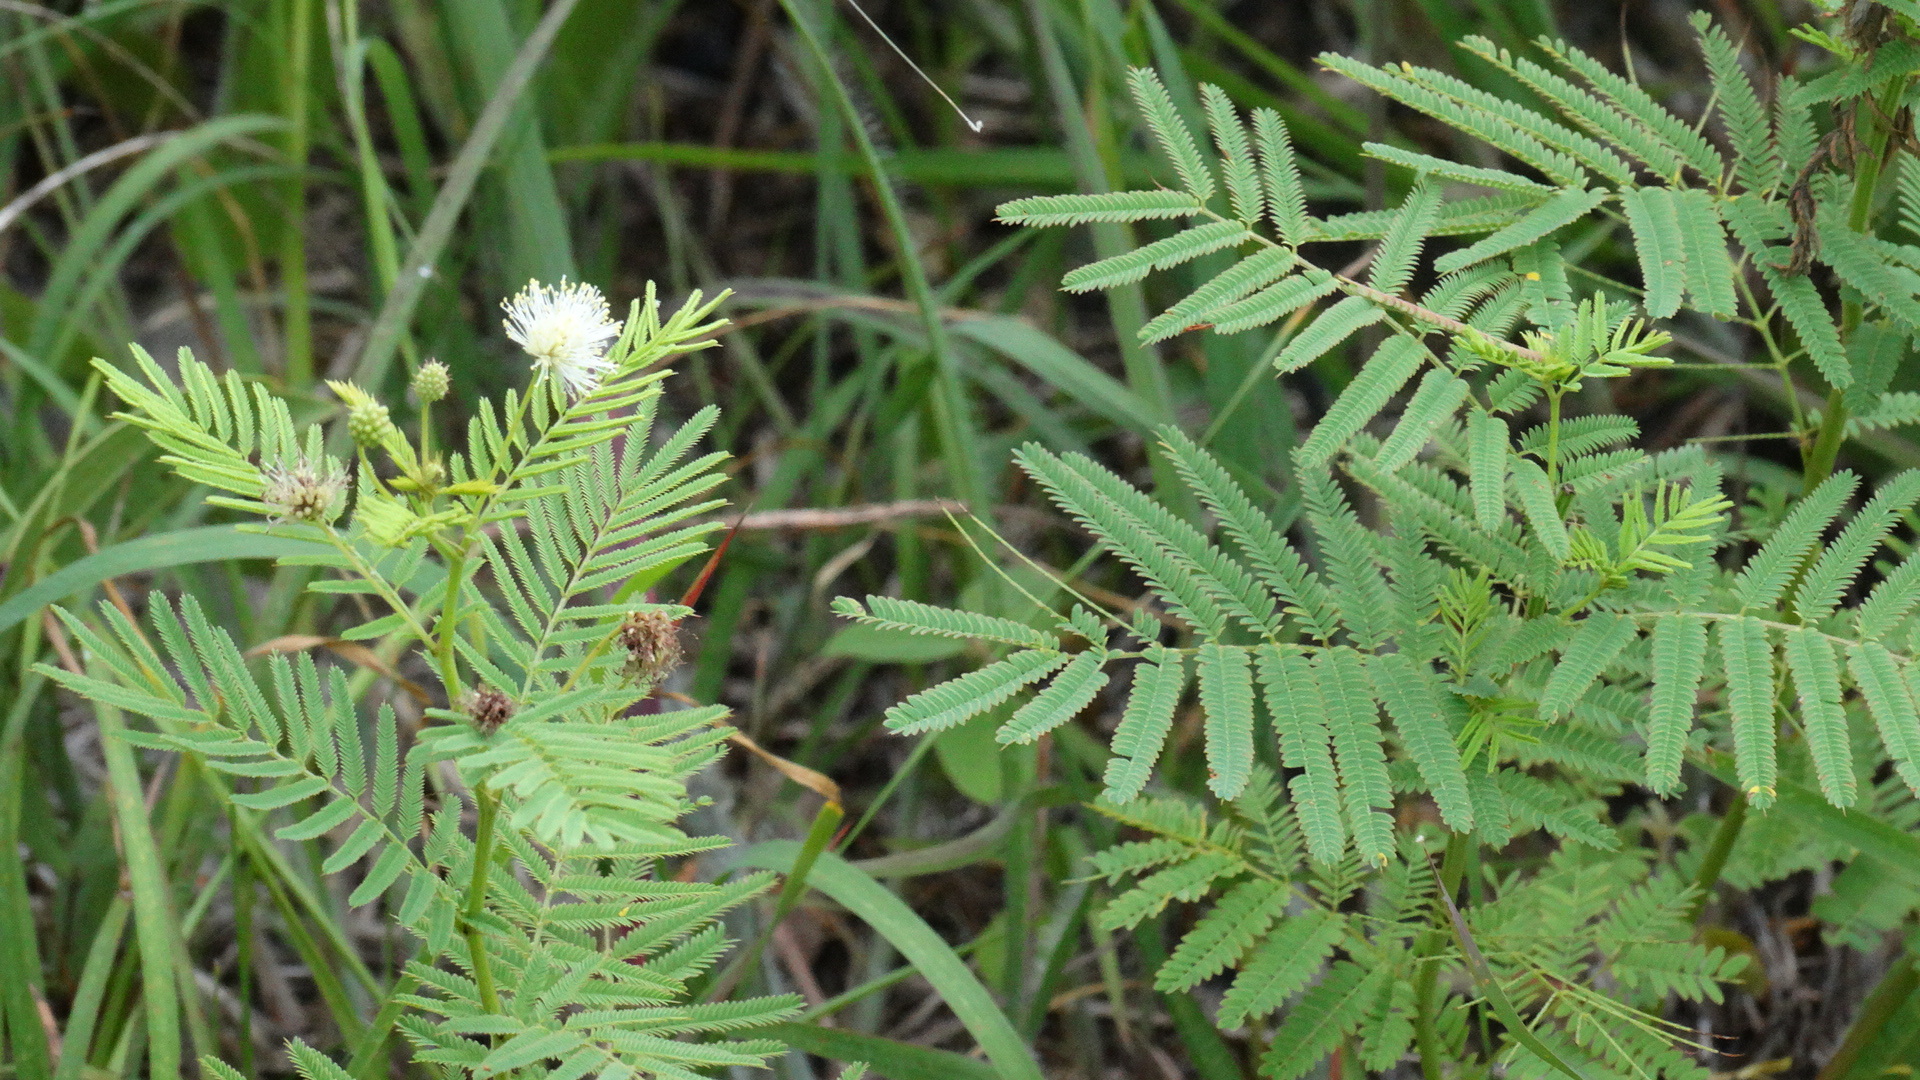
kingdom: Plantae
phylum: Tracheophyta
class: Magnoliopsida
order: Fabales
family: Fabaceae
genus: Desmanthus
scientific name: Desmanthus illinoensis
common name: Illinois bundle-flower
